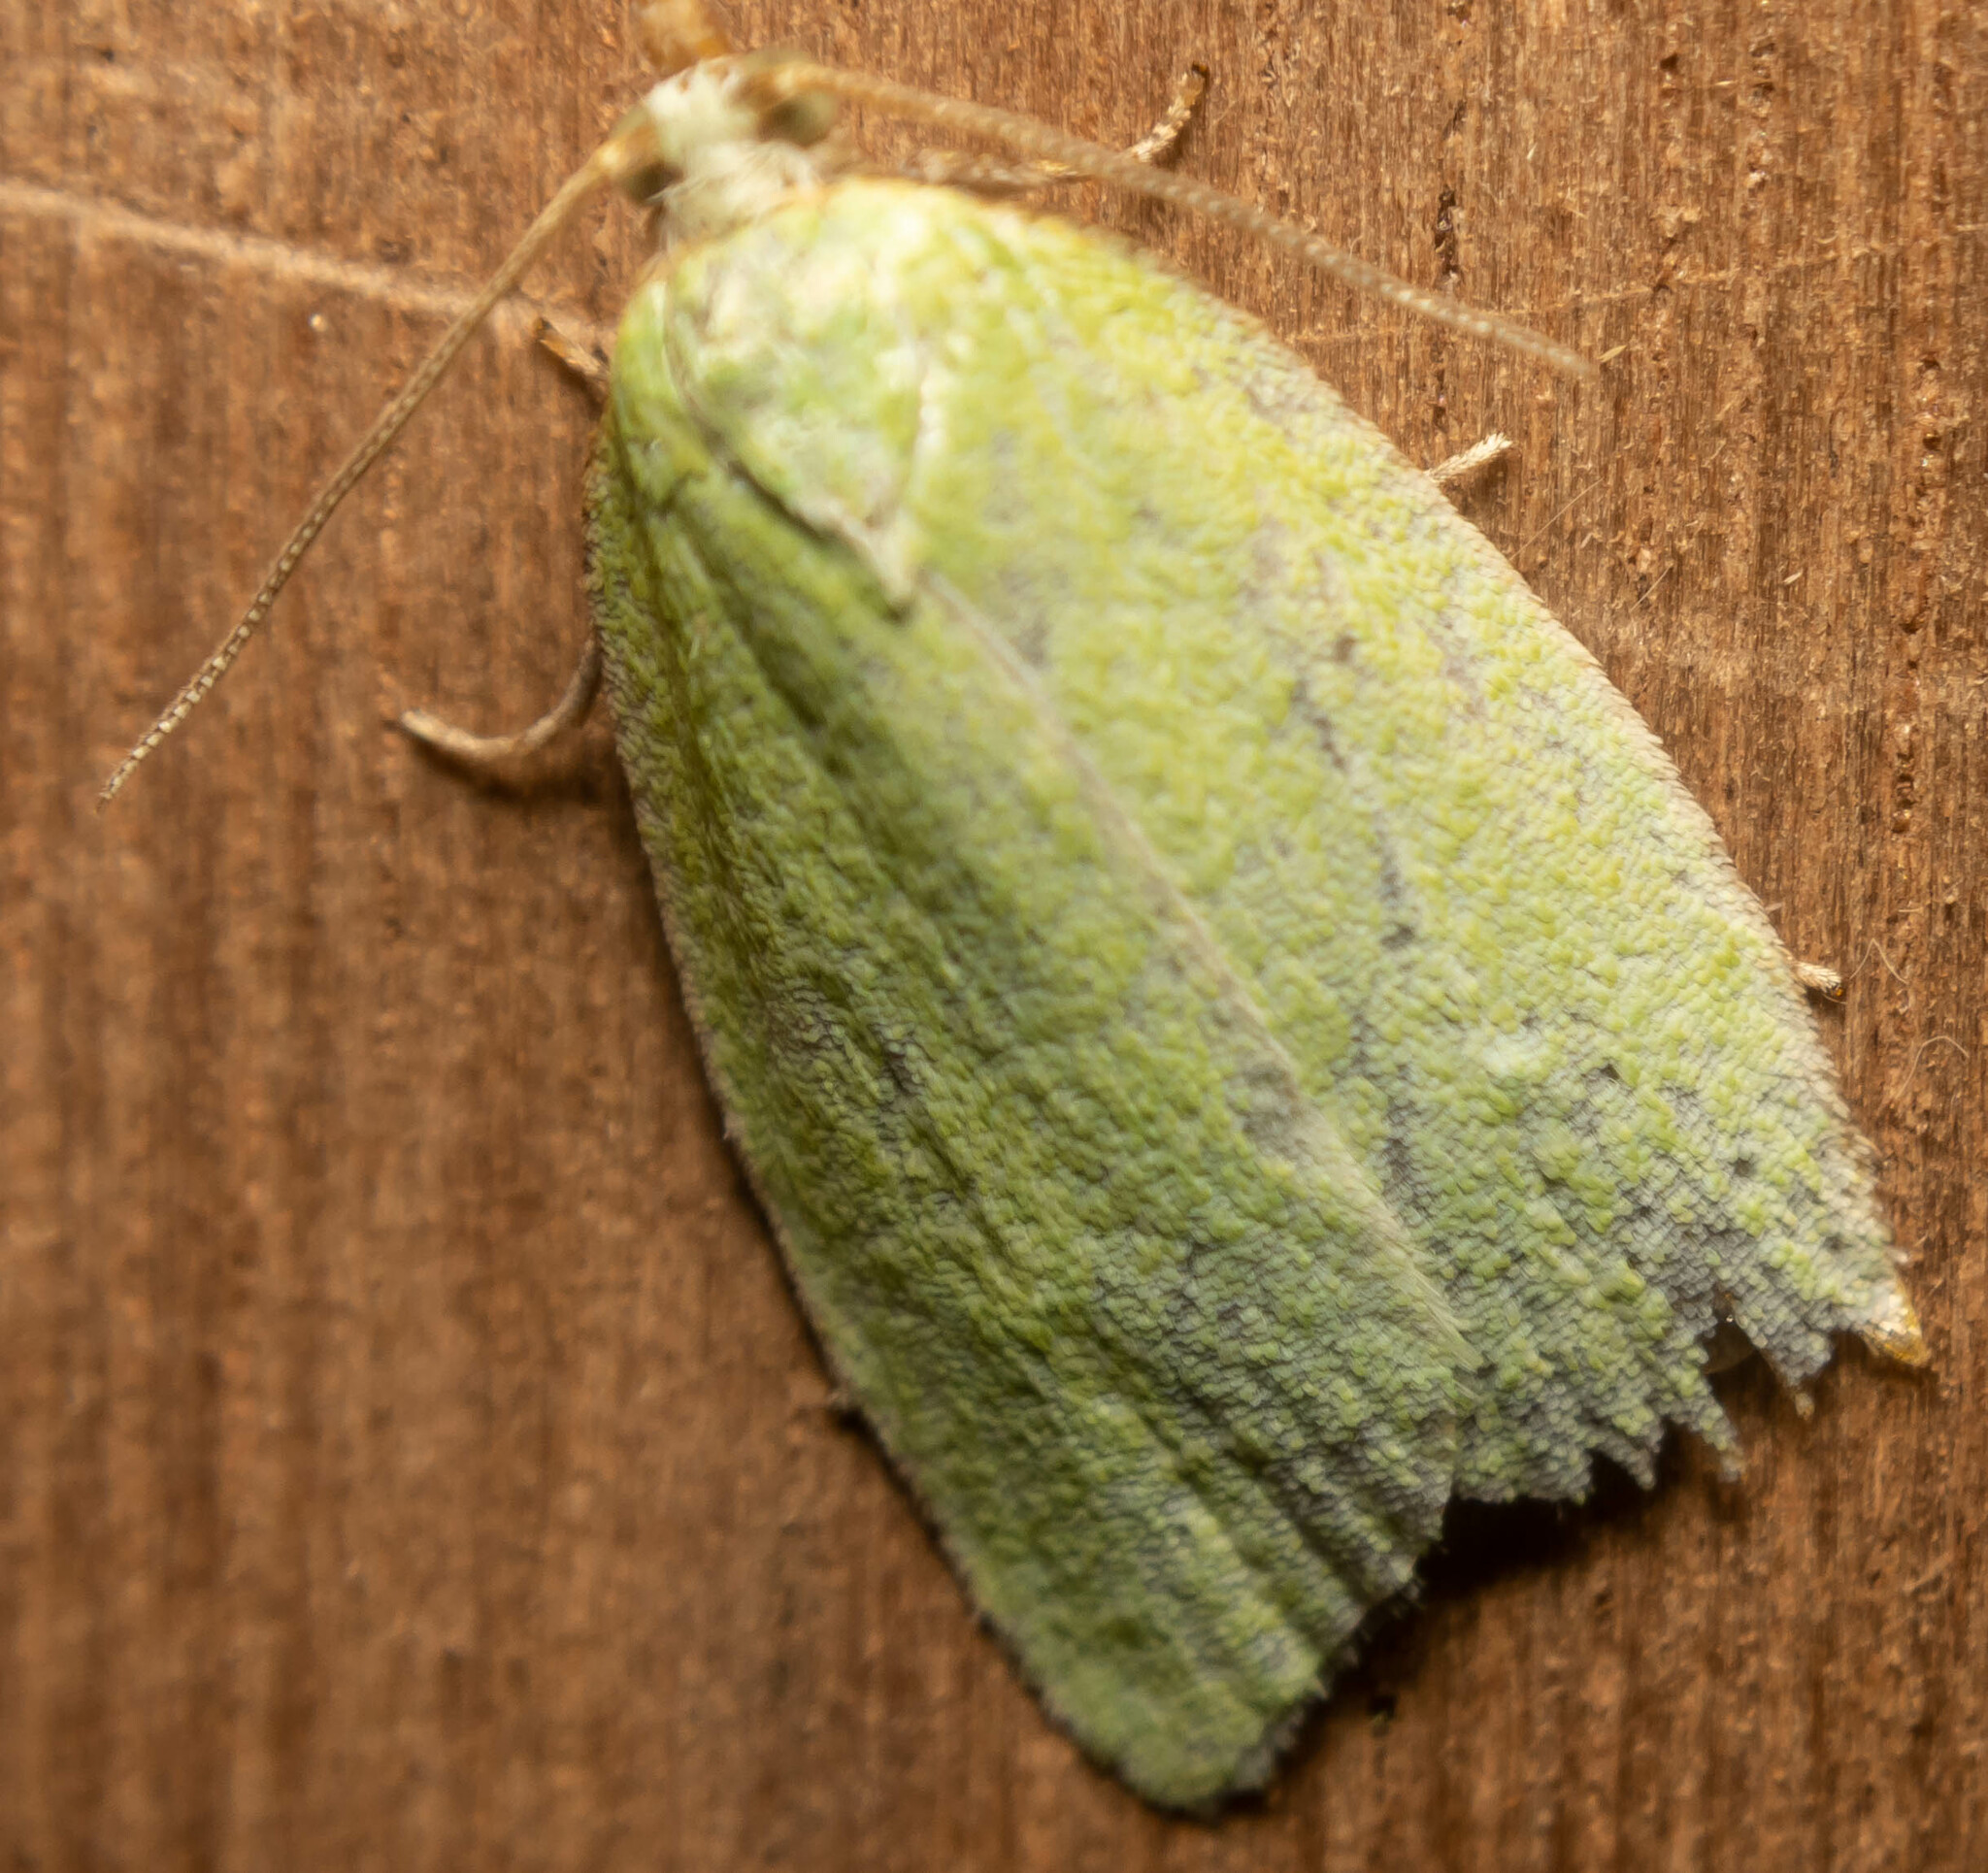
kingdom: Animalia
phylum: Arthropoda
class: Insecta
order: Lepidoptera
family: Tortricidae
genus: Tortrix
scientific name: Tortrix viridana
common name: Green oak tortrix
